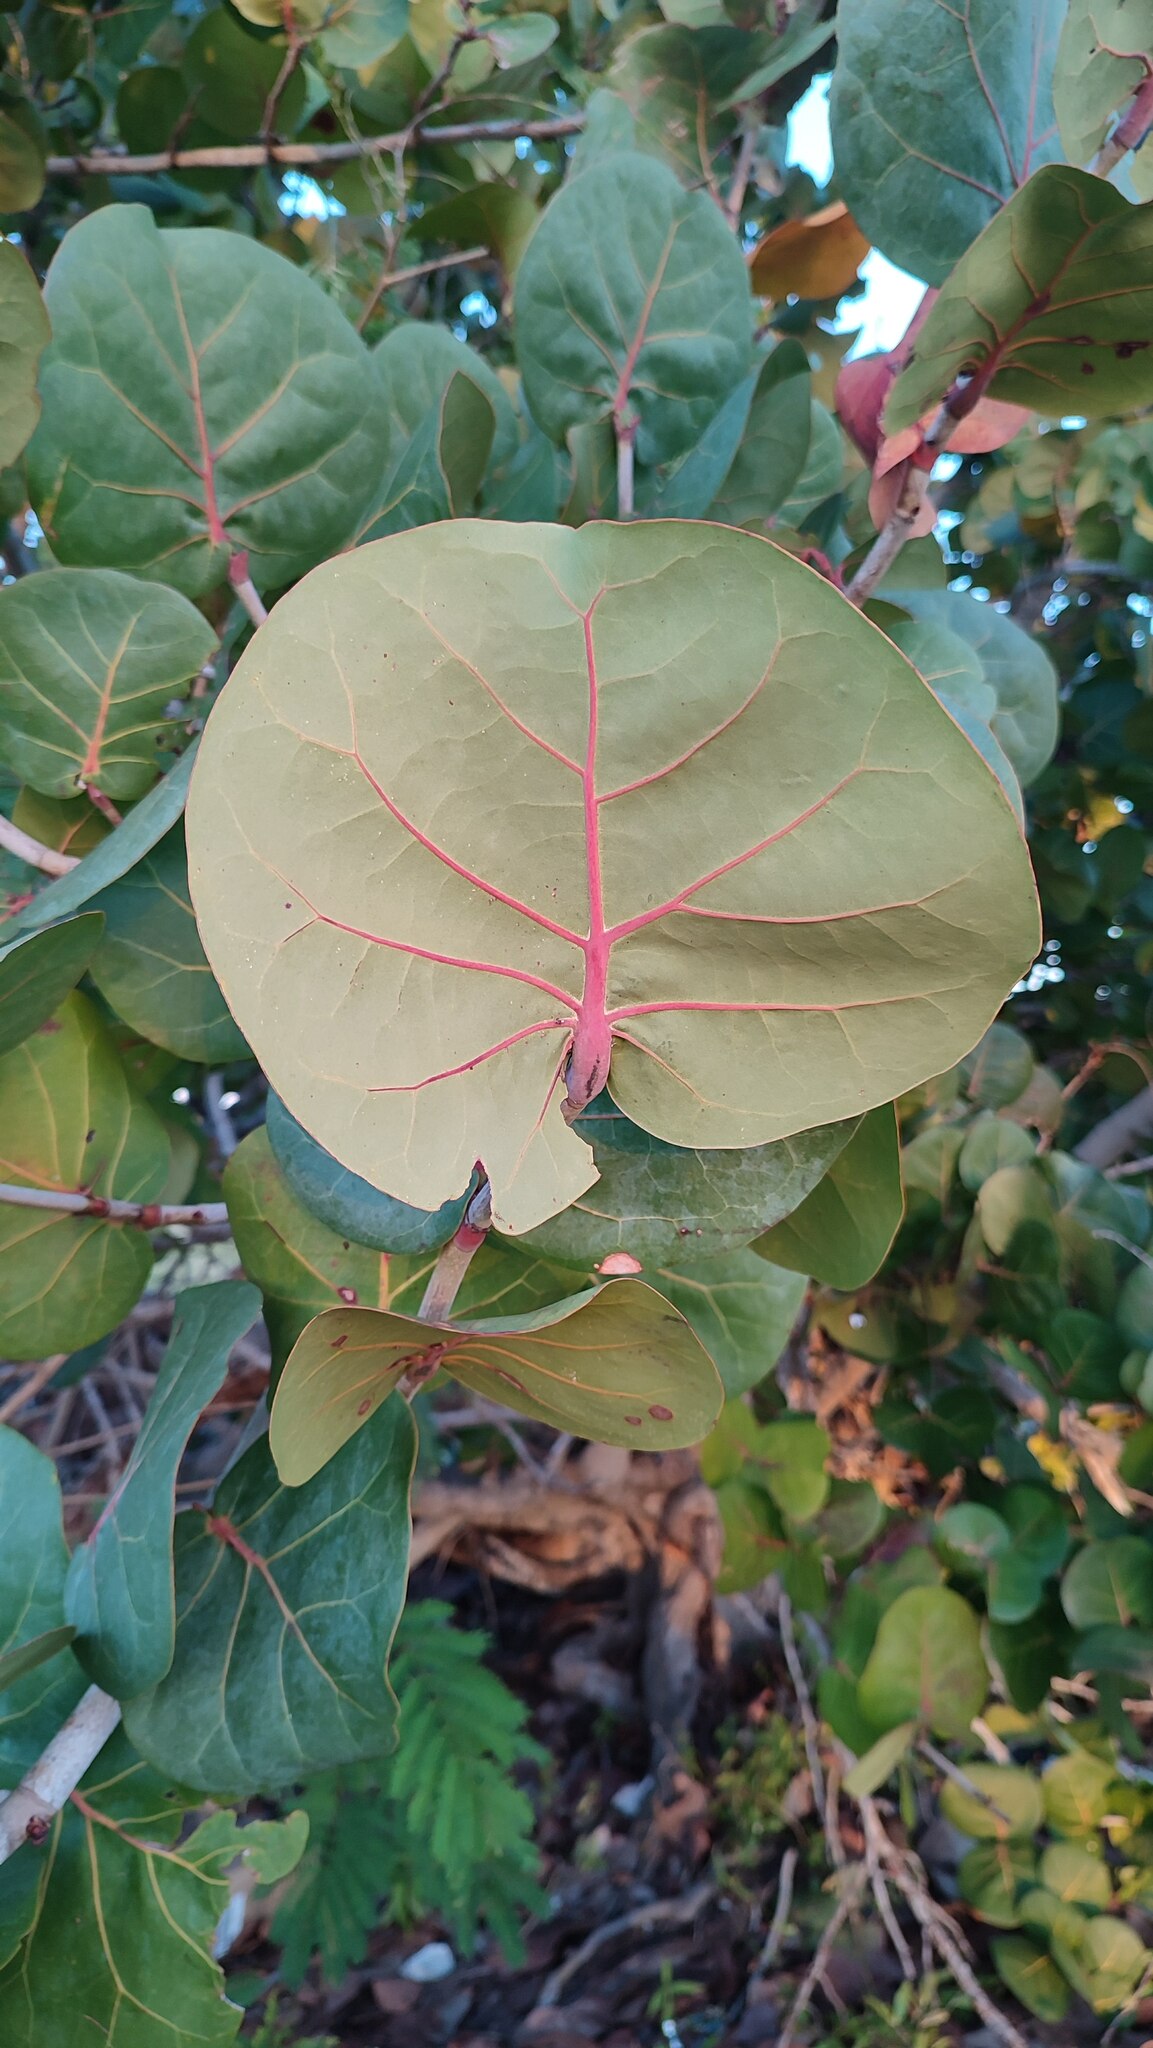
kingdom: Plantae
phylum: Tracheophyta
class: Magnoliopsida
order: Caryophyllales
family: Polygonaceae
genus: Coccoloba
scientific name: Coccoloba uvifera
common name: Seagrape
